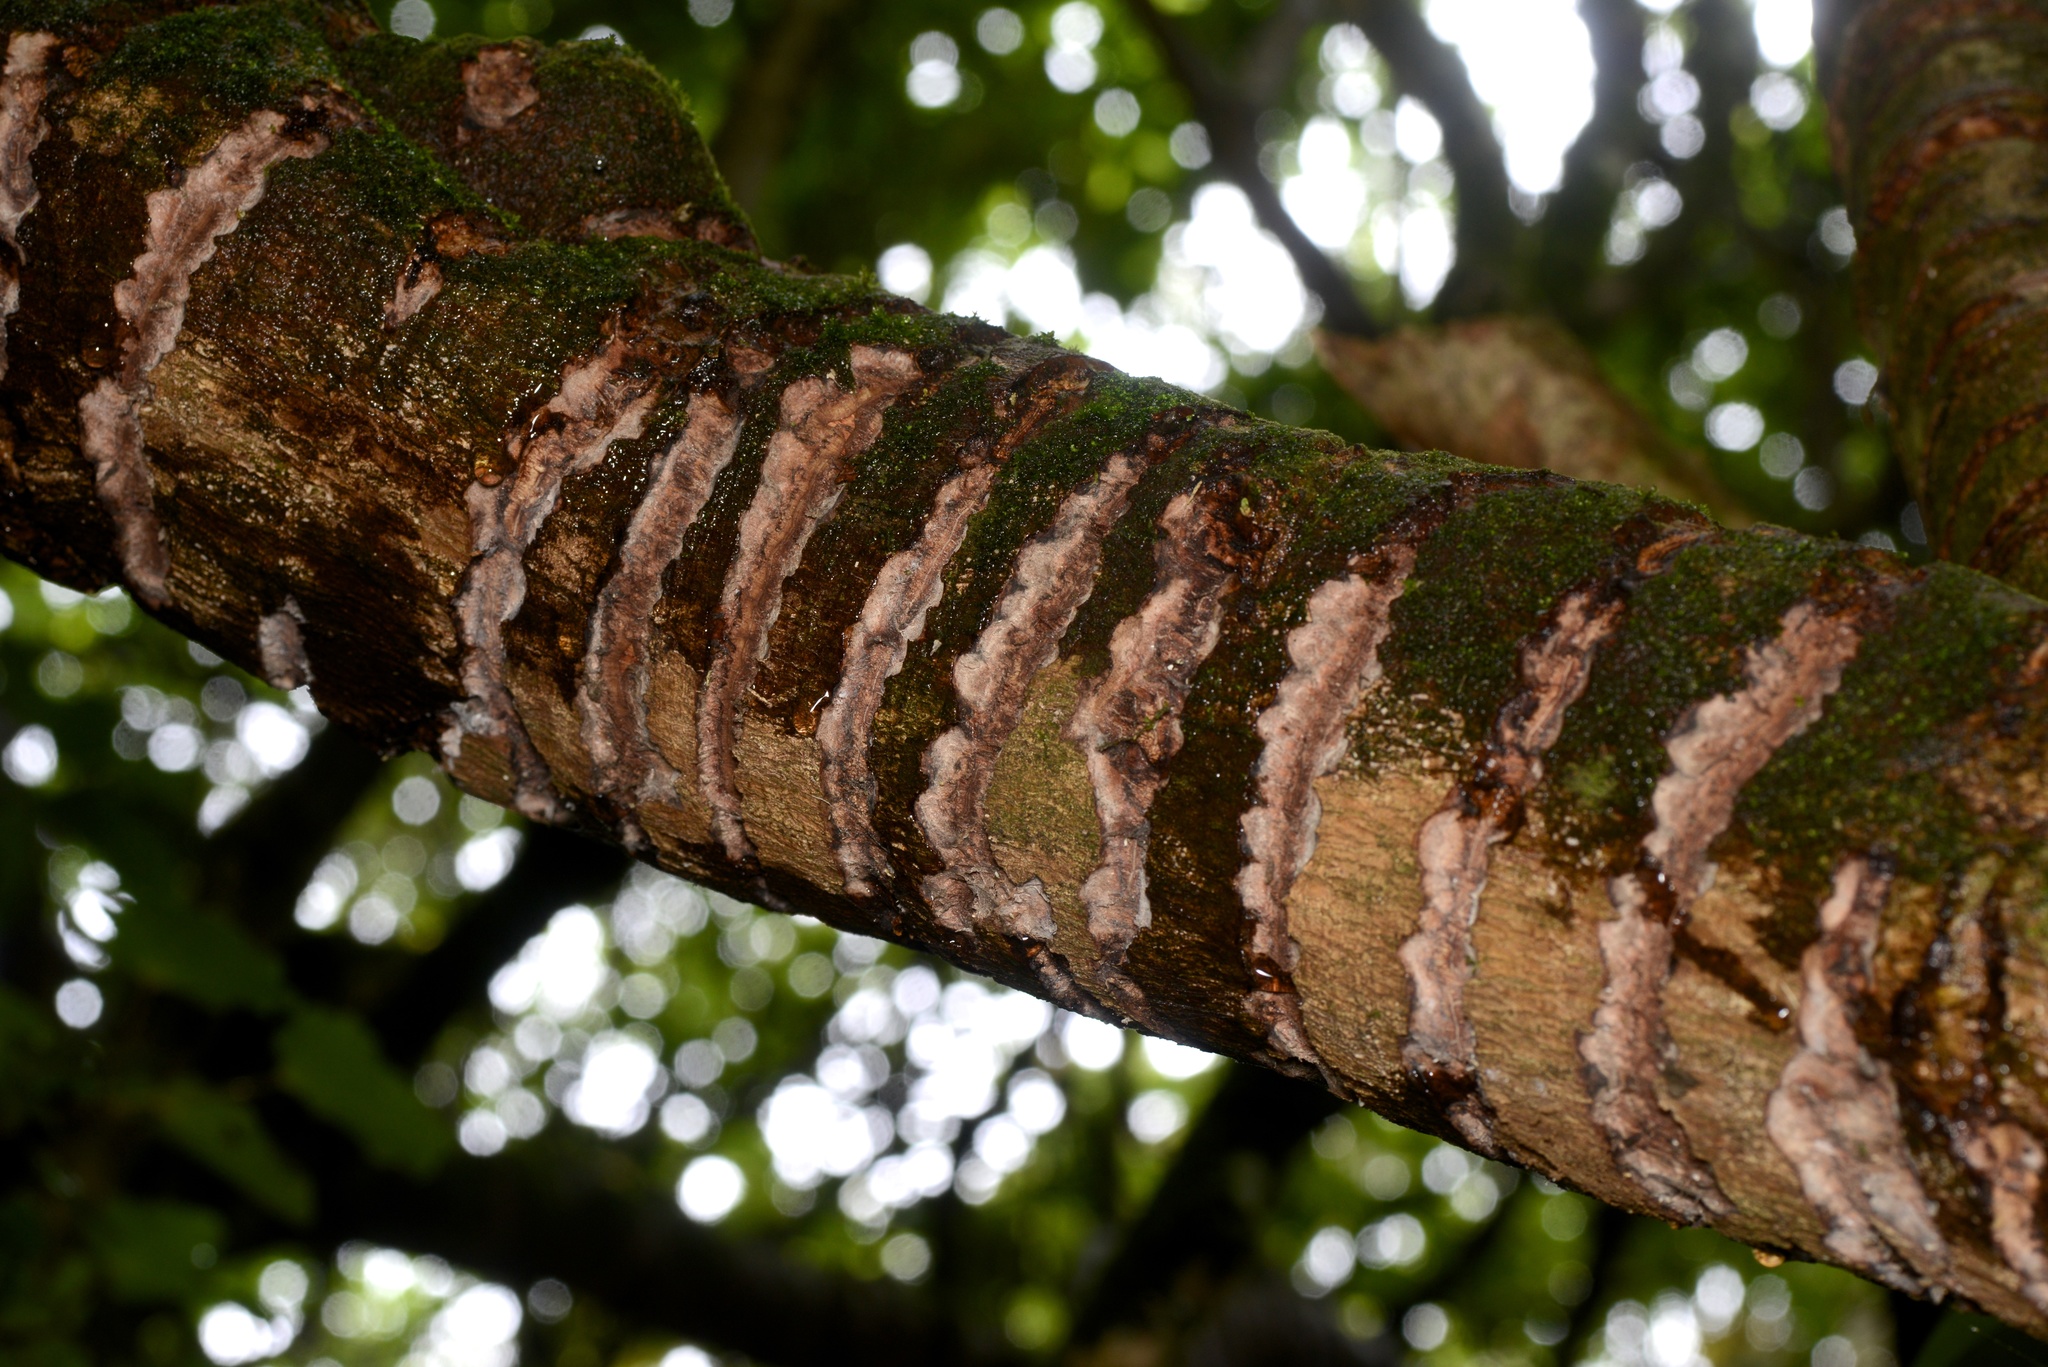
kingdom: Animalia
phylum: Chordata
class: Aves
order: Psittaciformes
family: Psittacidae
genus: Nestor
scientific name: Nestor meridionalis
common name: New zealand kaka
